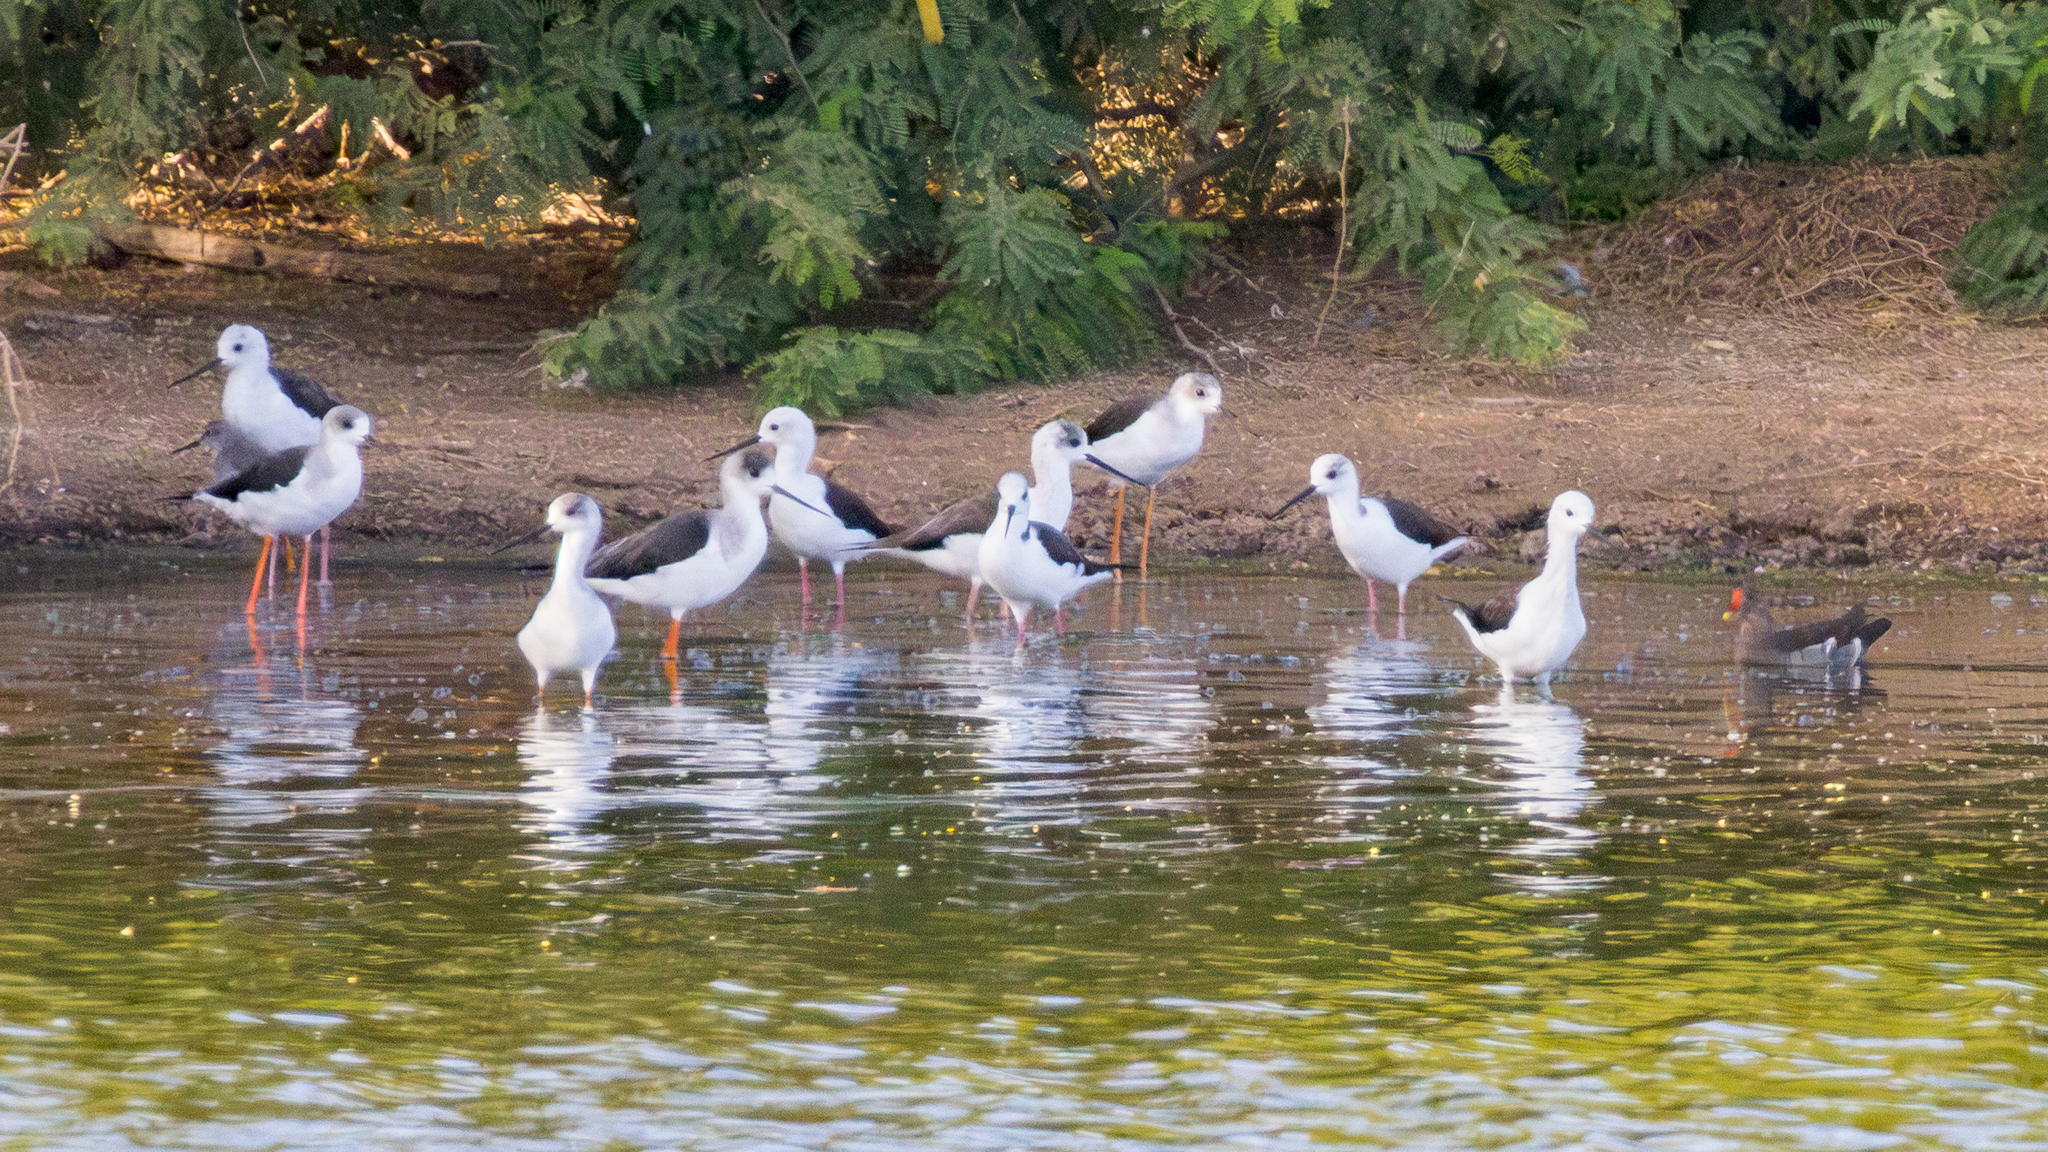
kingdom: Animalia
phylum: Chordata
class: Aves
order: Charadriiformes
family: Recurvirostridae
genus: Himantopus
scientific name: Himantopus himantopus
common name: Black-winged stilt
